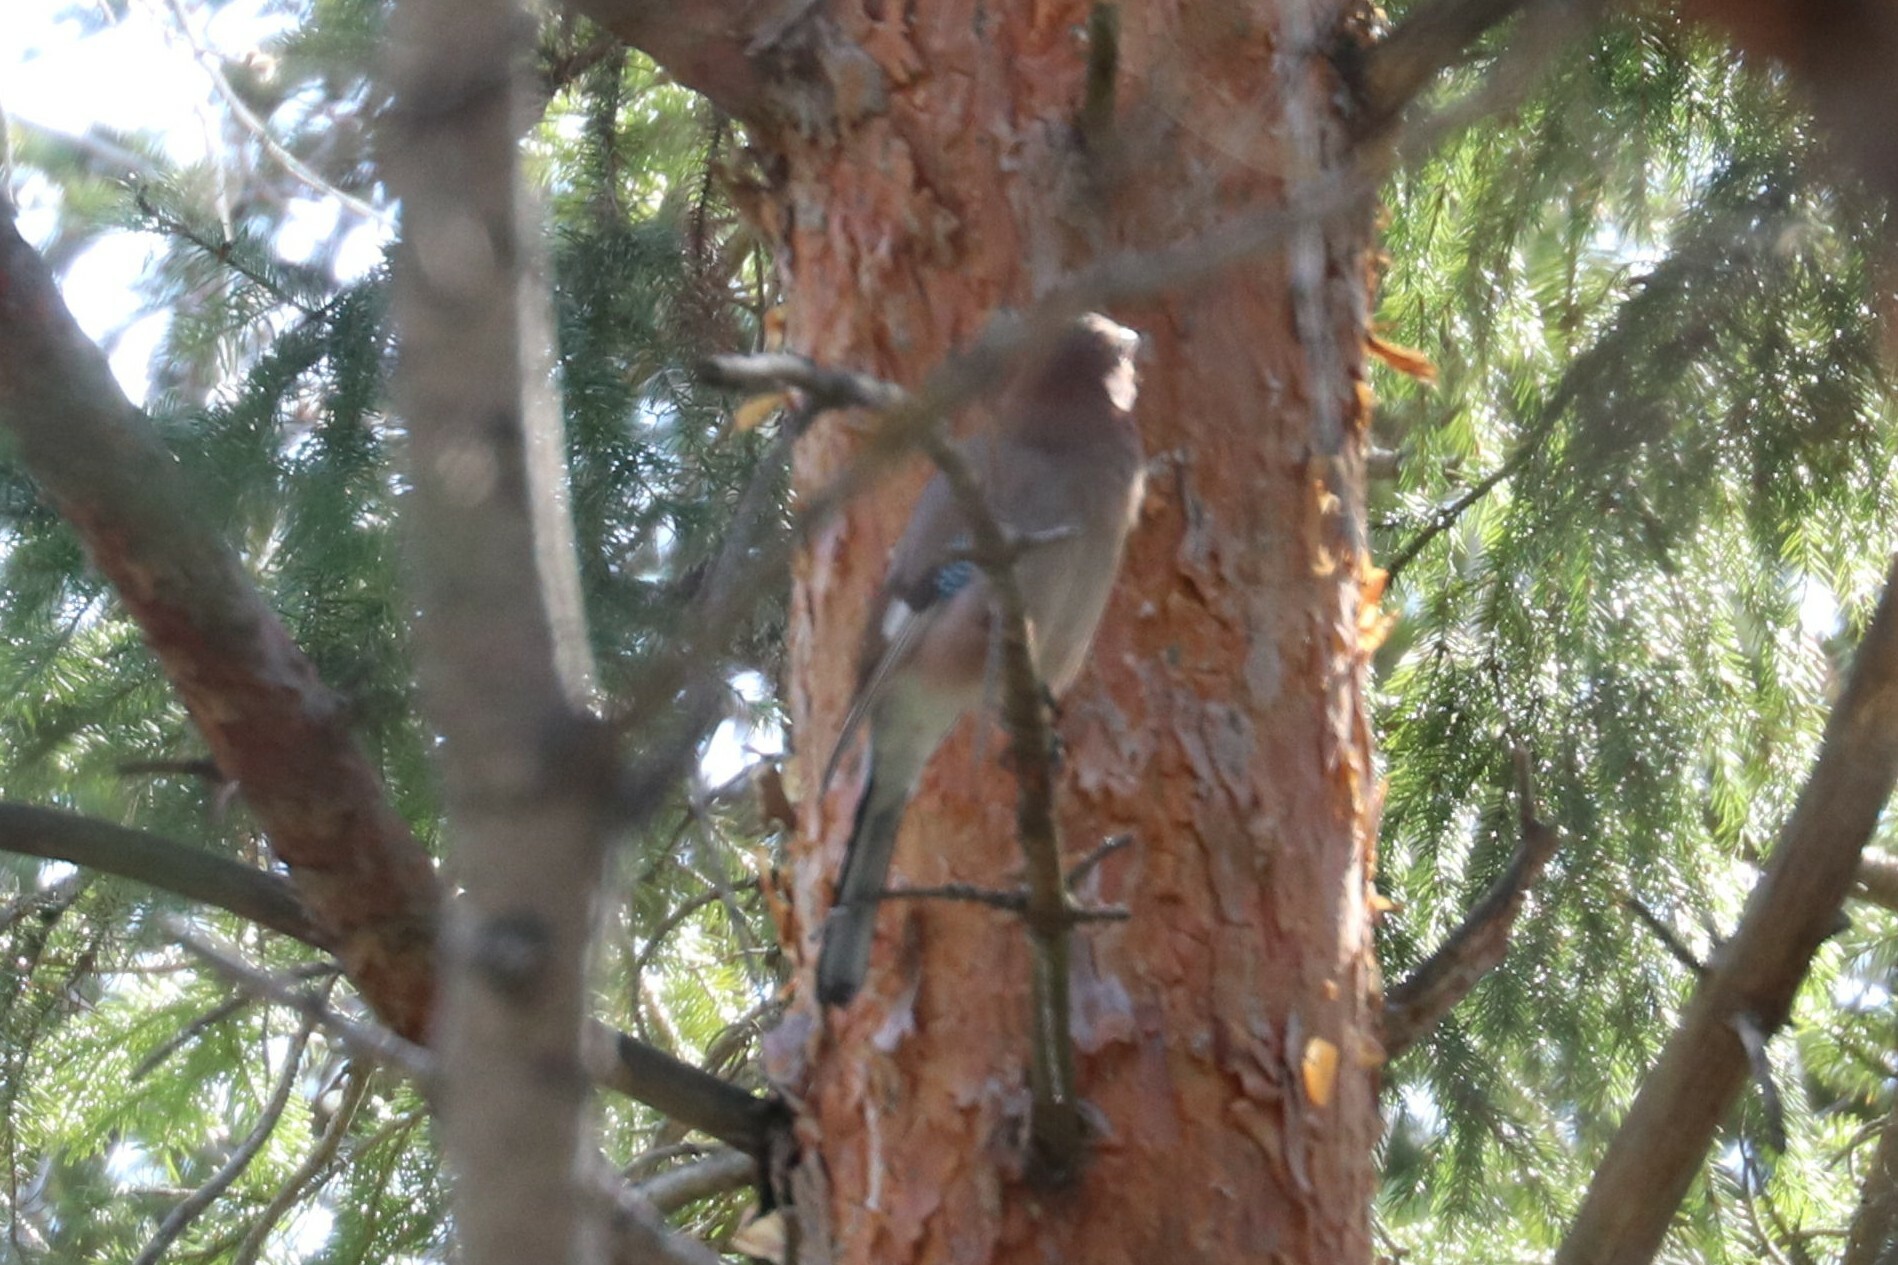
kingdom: Animalia
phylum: Chordata
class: Aves
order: Passeriformes
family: Corvidae
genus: Garrulus
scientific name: Garrulus glandarius
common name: Eurasian jay
